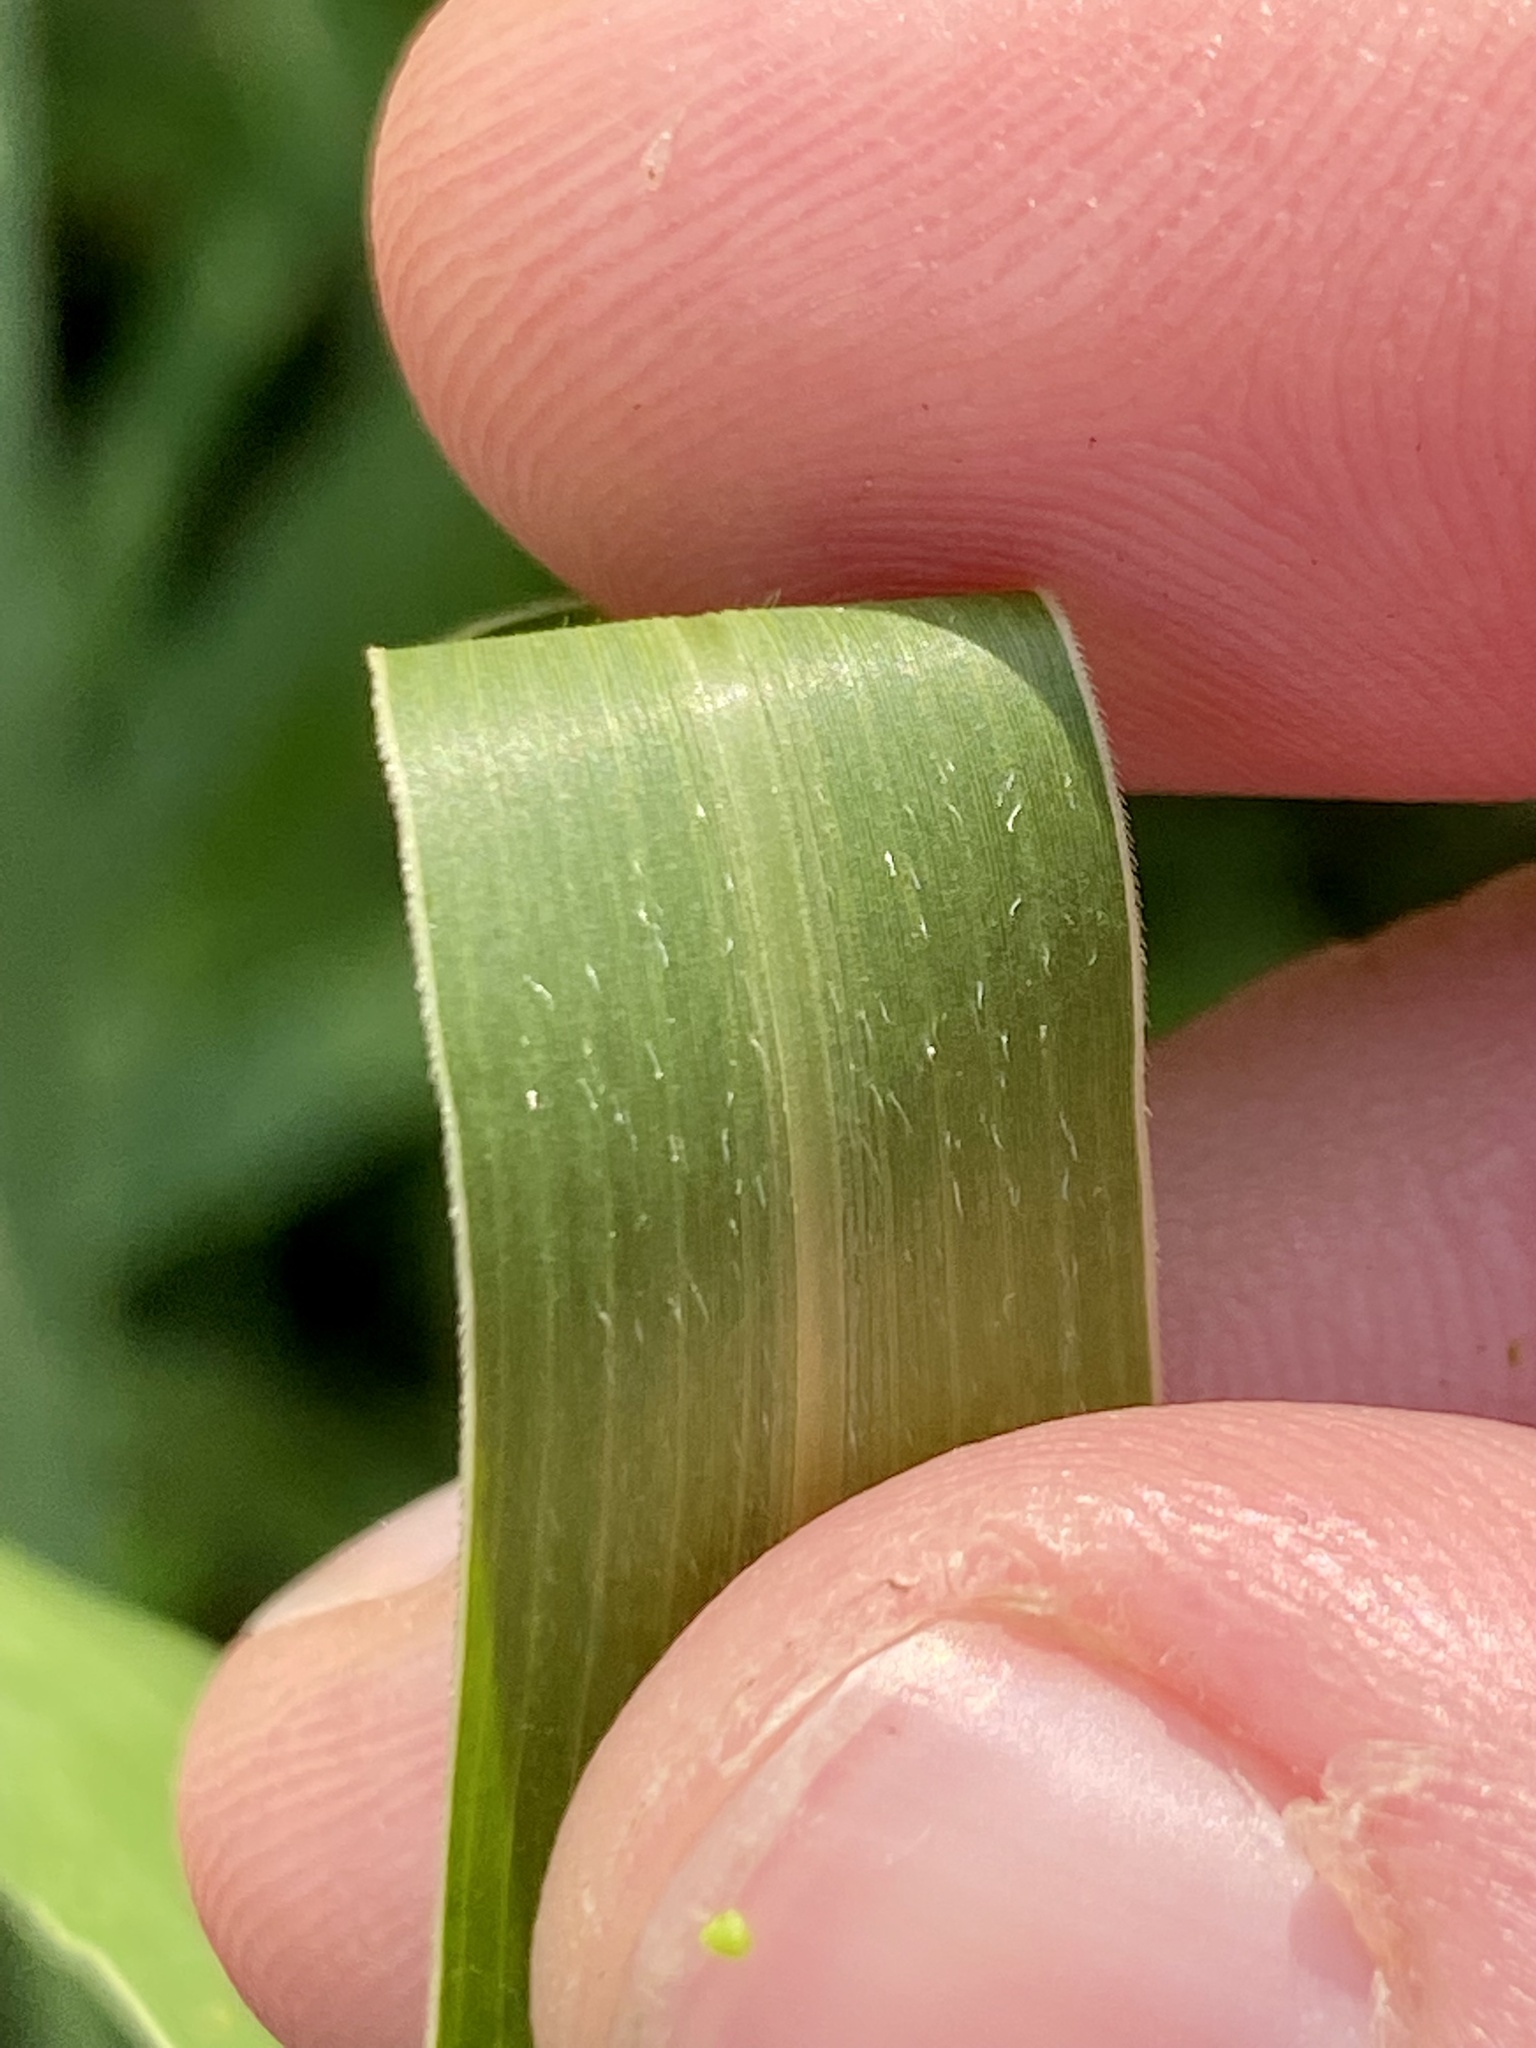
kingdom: Plantae
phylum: Tracheophyta
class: Liliopsida
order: Poales
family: Poaceae
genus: Setaria
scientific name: Setaria faberi
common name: Nodding bristle-grass
